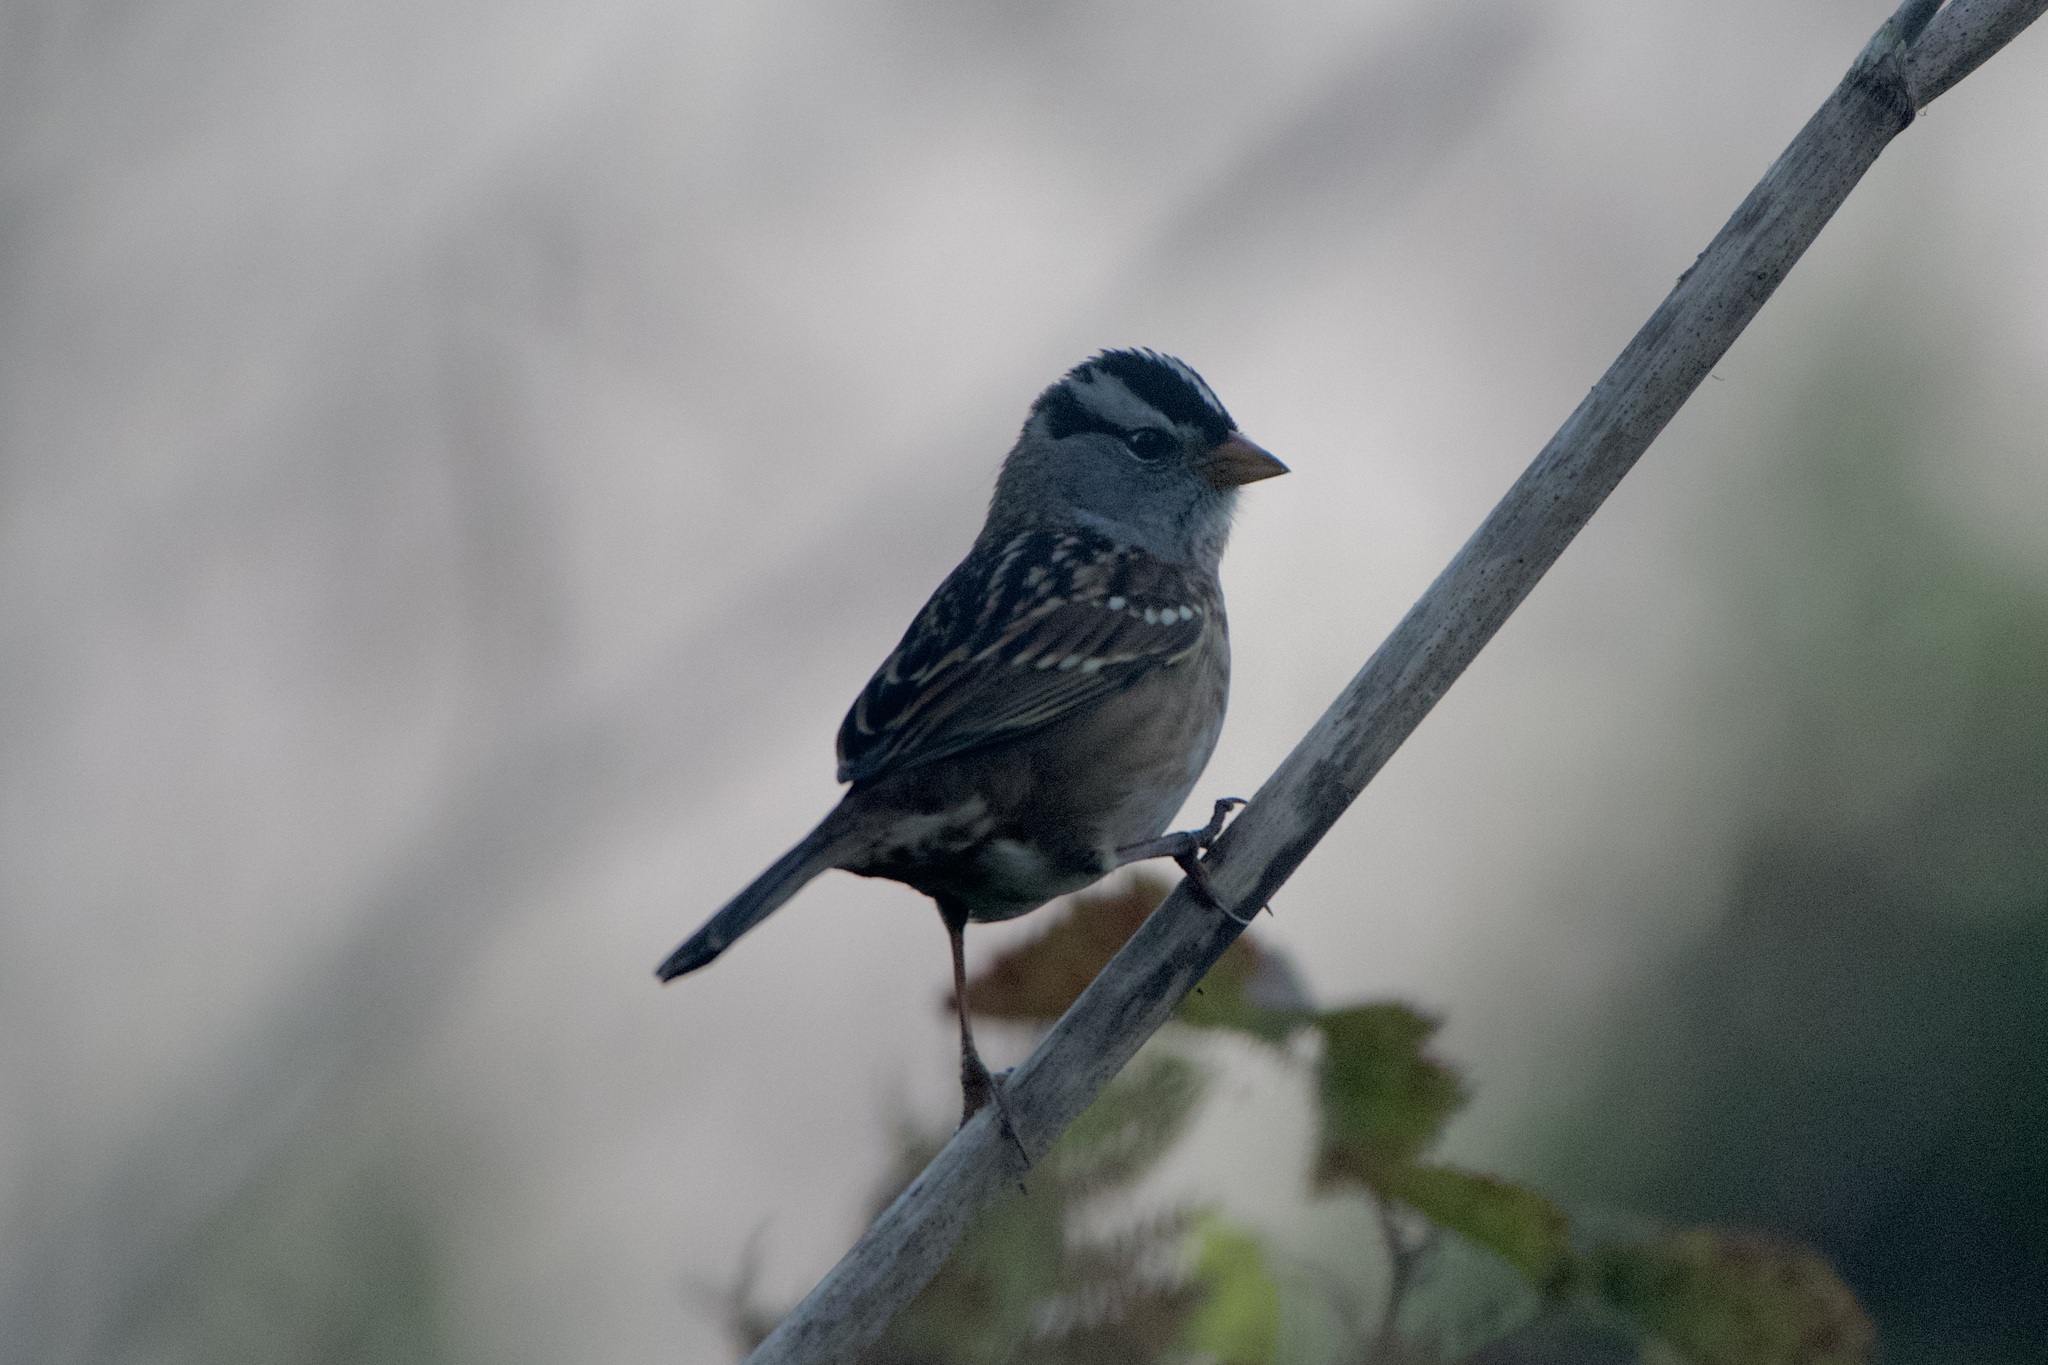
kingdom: Animalia
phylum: Chordata
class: Aves
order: Passeriformes
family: Passerellidae
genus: Zonotrichia
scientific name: Zonotrichia leucophrys
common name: White-crowned sparrow
